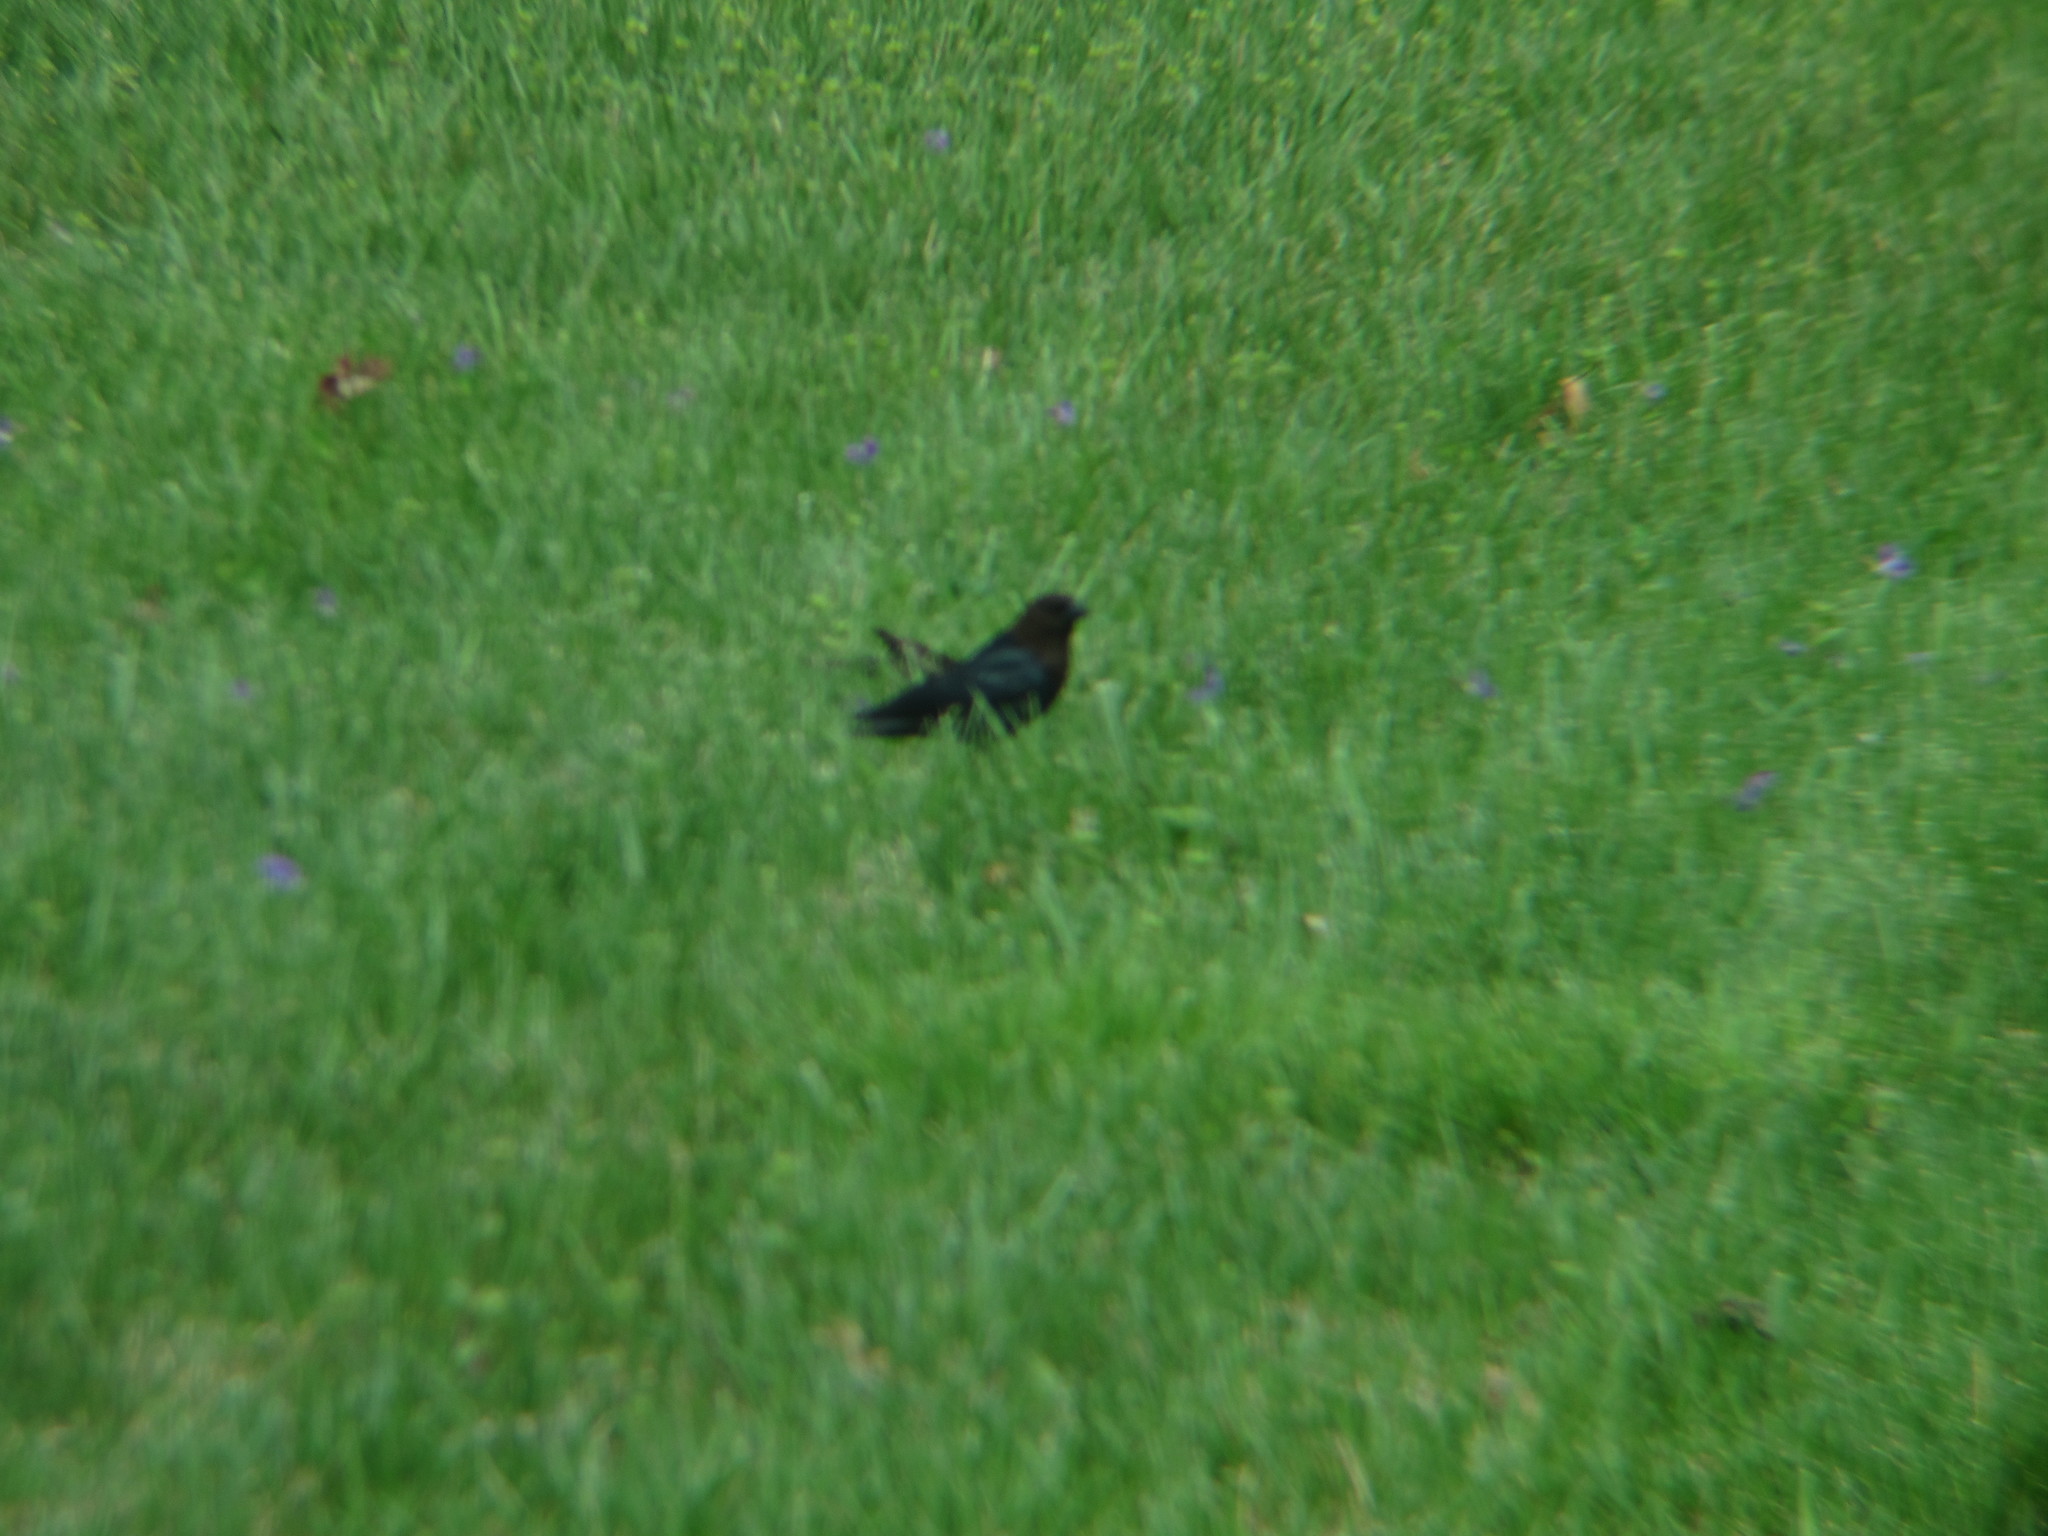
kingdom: Animalia
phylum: Chordata
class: Aves
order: Passeriformes
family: Icteridae
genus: Molothrus
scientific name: Molothrus ater
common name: Brown-headed cowbird
